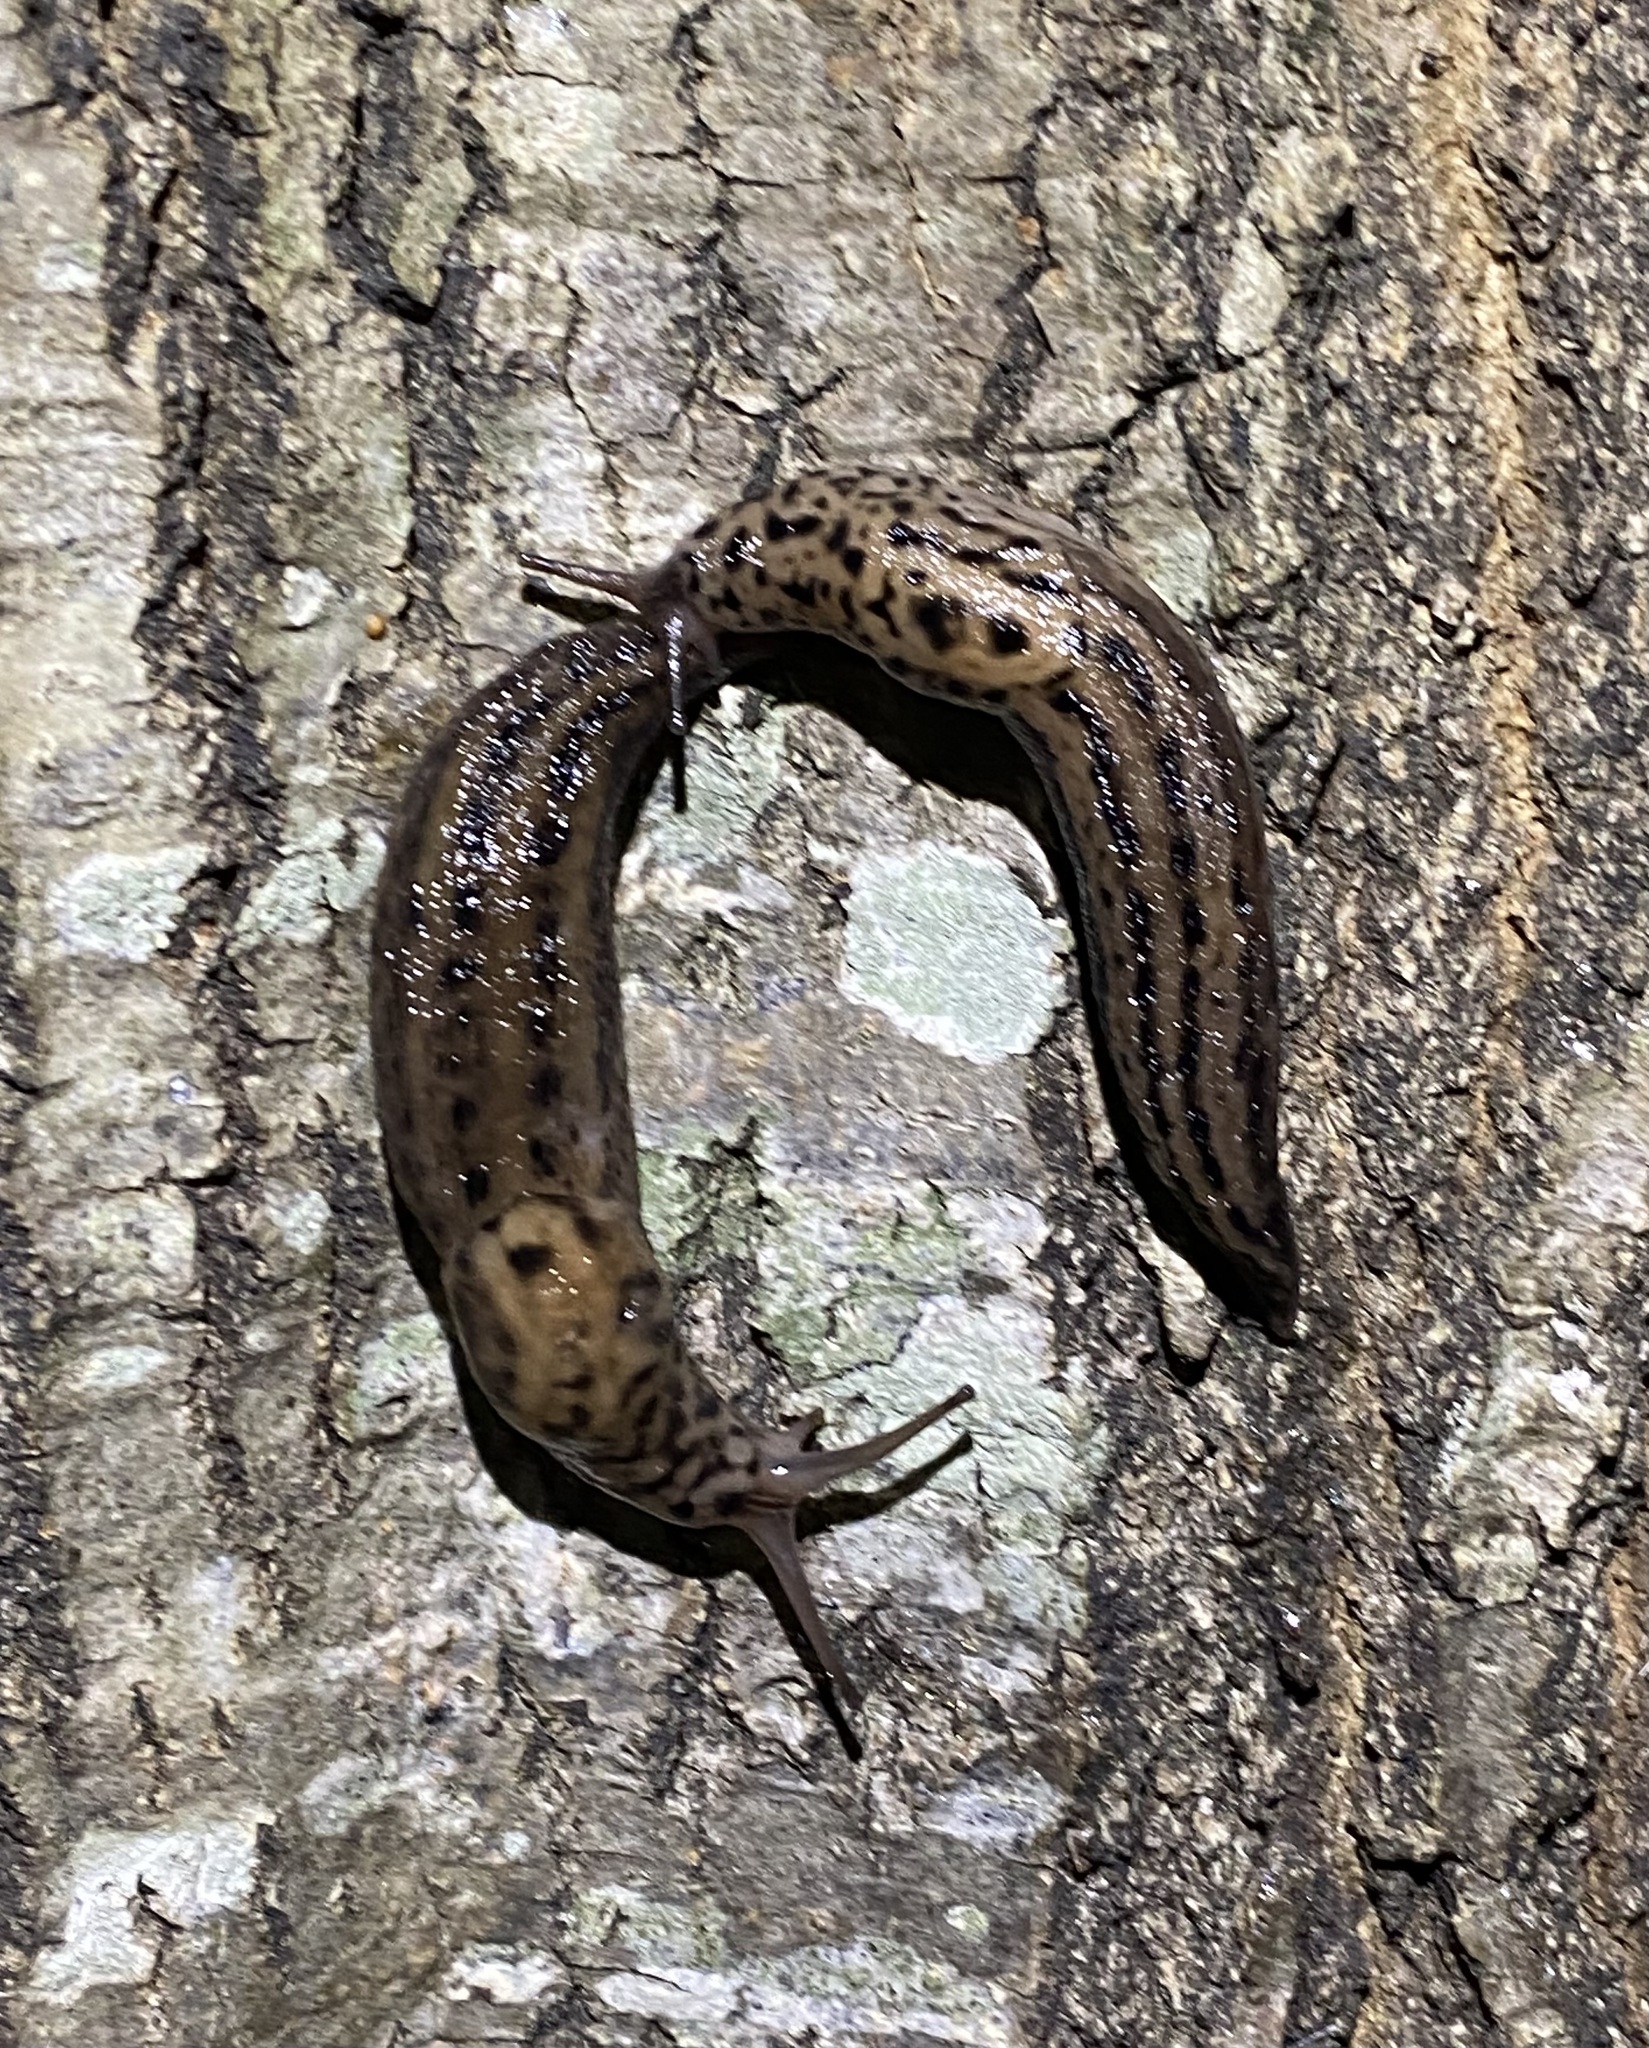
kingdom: Animalia
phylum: Mollusca
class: Gastropoda
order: Stylommatophora
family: Limacidae
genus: Limax
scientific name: Limax maximus
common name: Great grey slug
